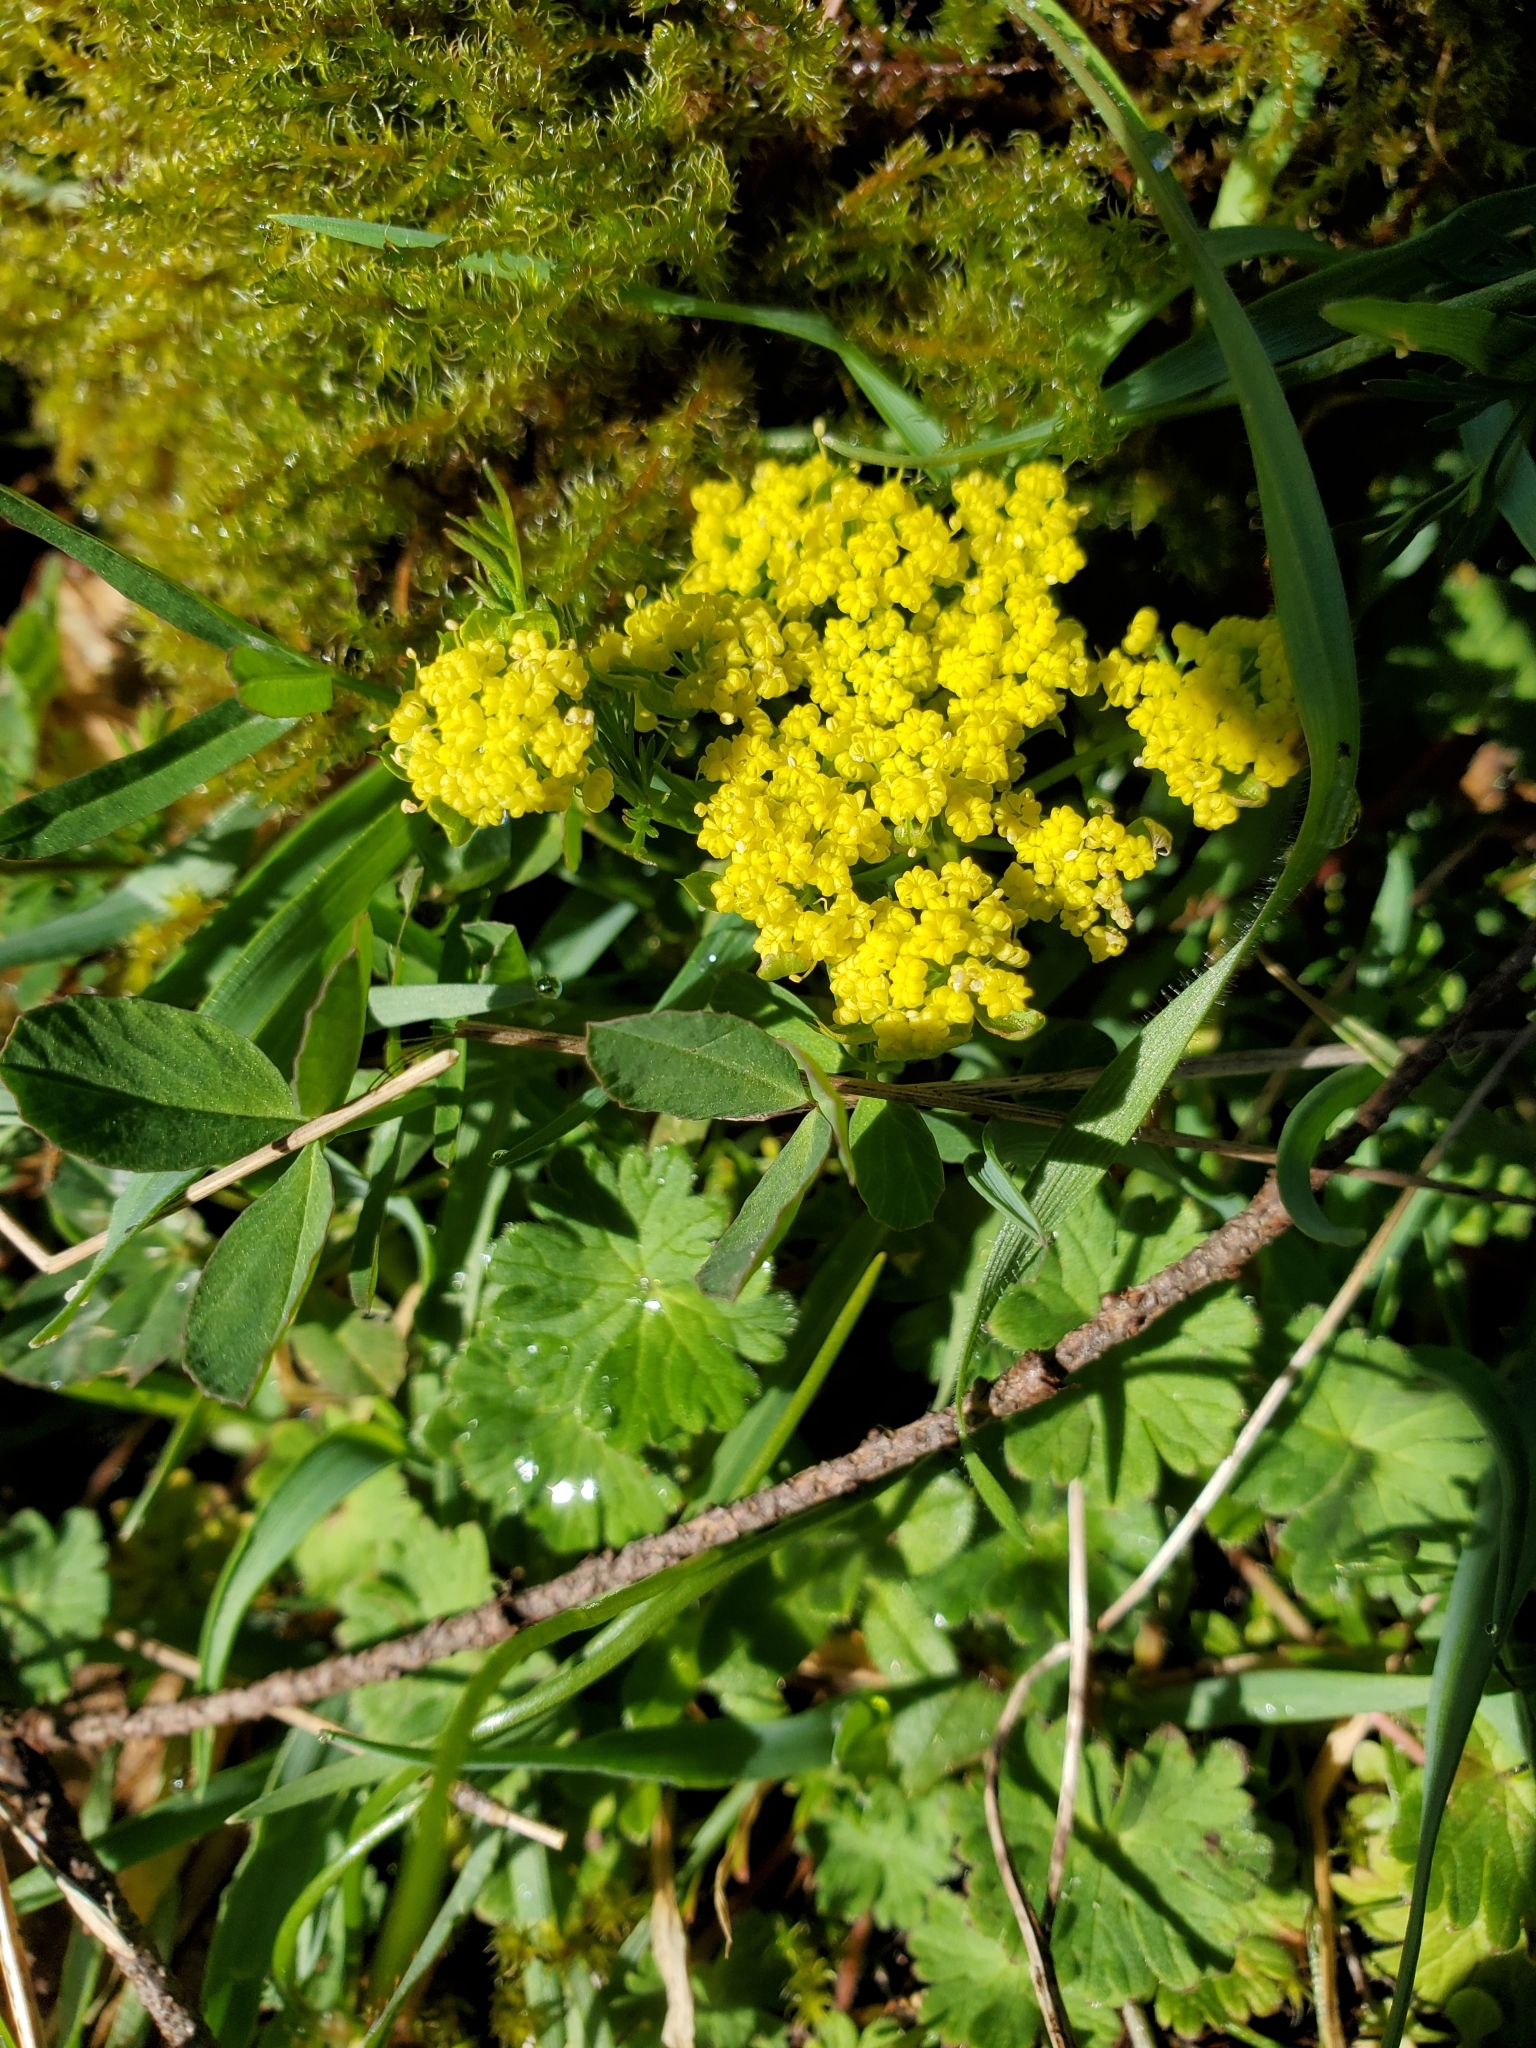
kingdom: Plantae
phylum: Tracheophyta
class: Magnoliopsida
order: Apiales
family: Apiaceae
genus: Lomatium
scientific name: Lomatium utriculatum
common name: Fine-leaf desert-parsley
